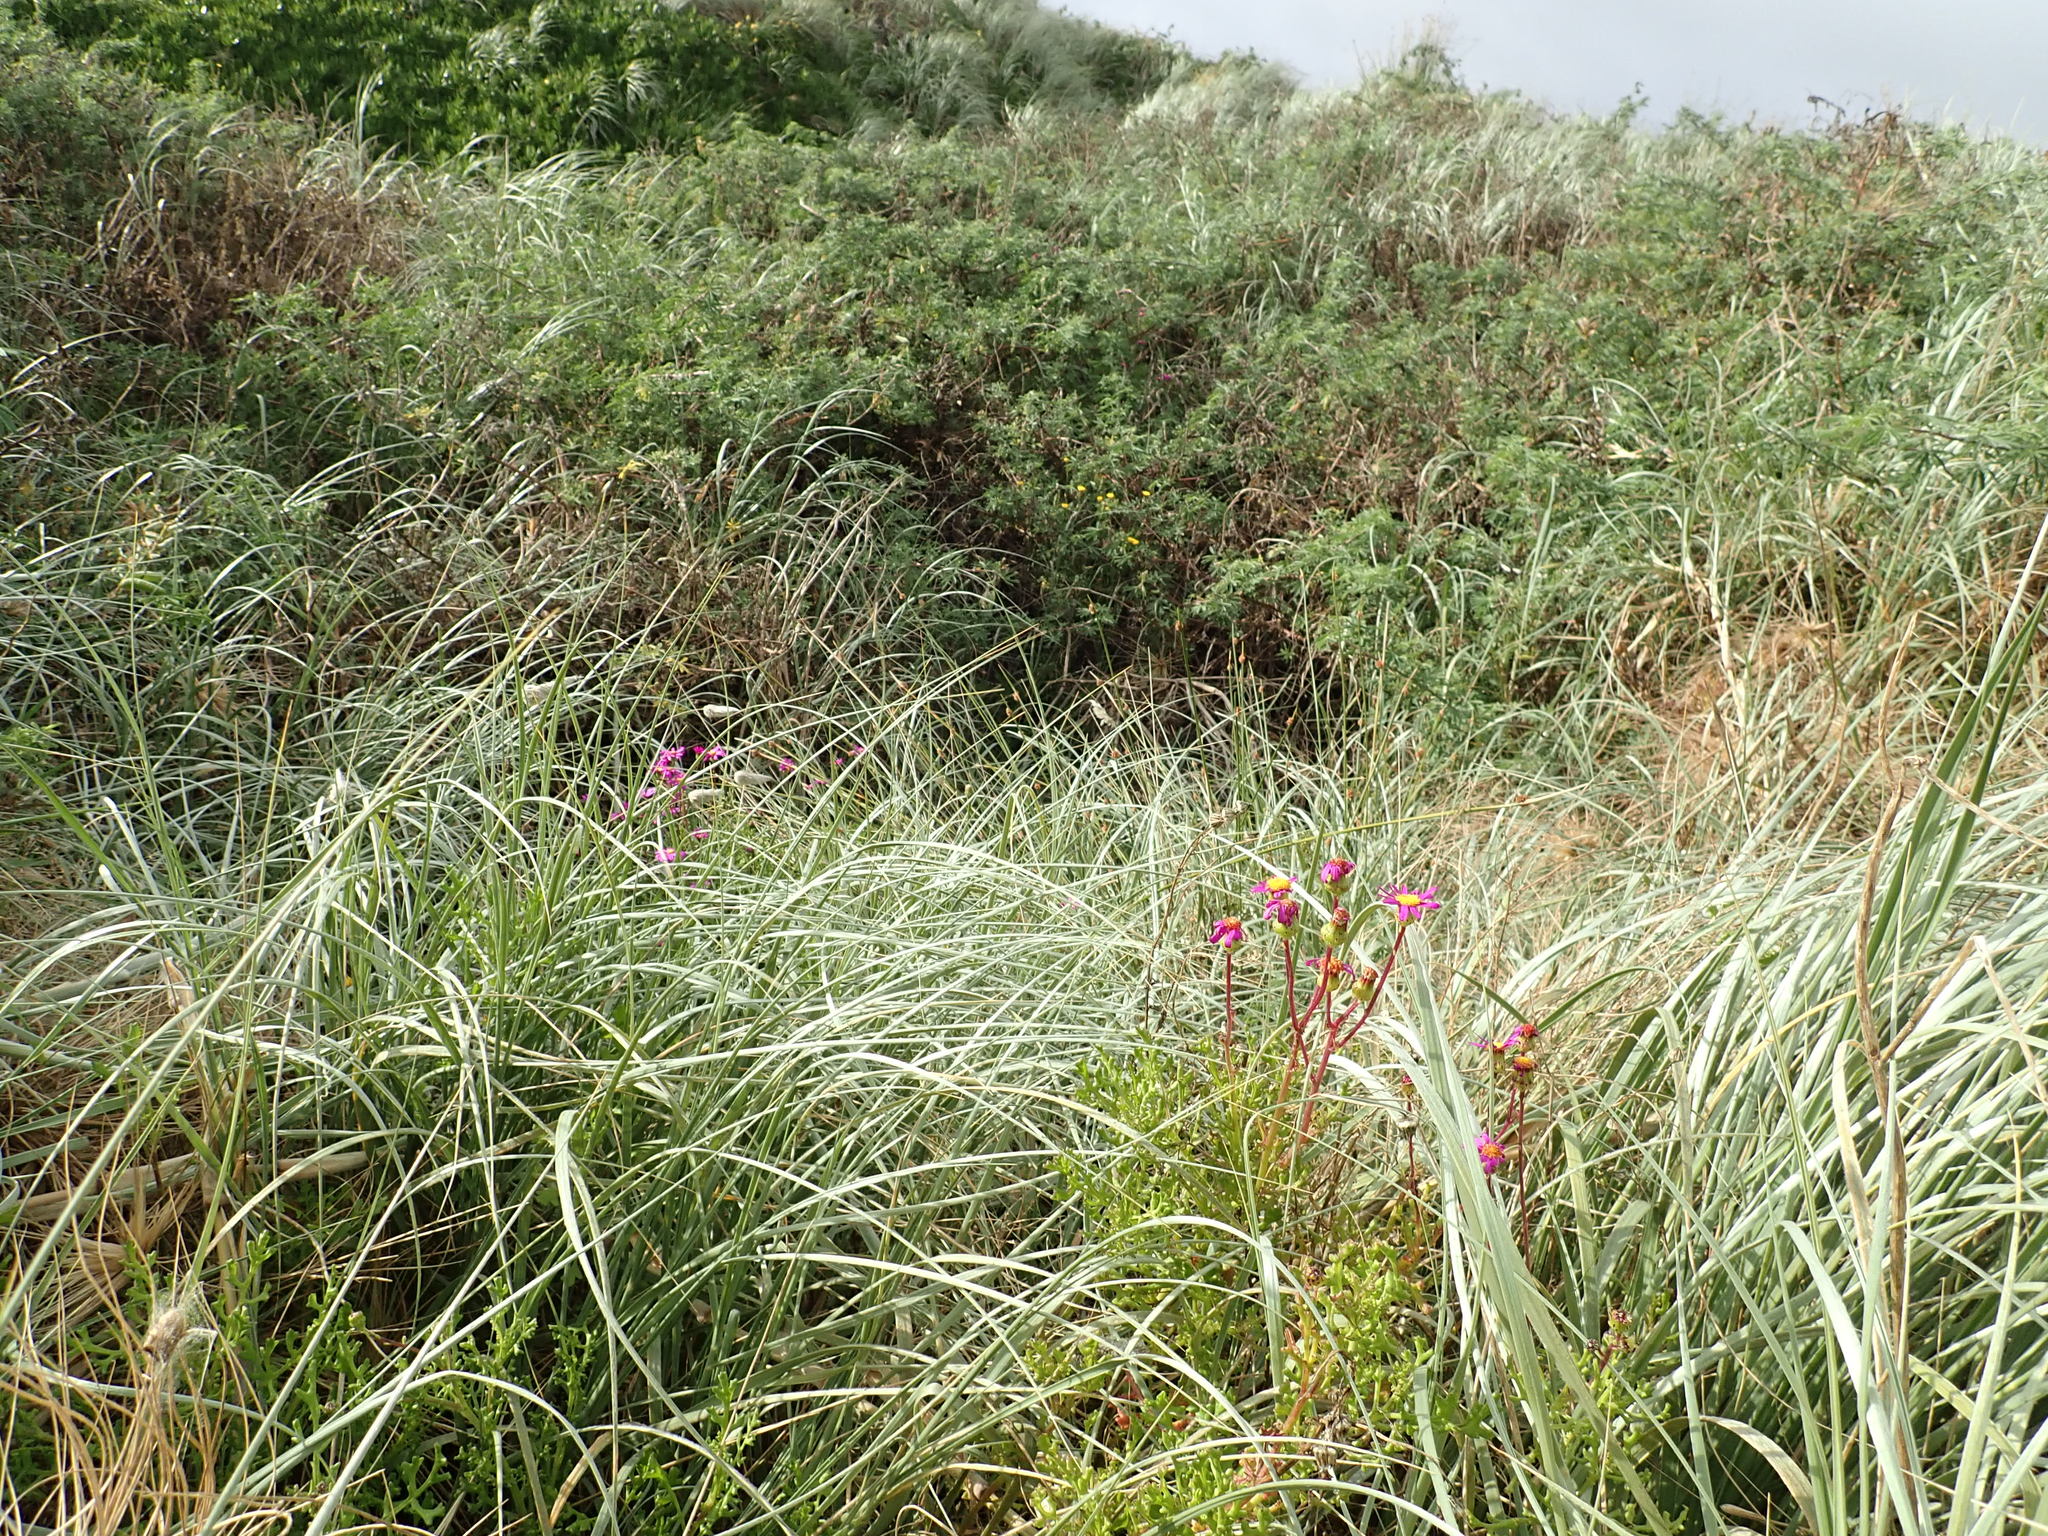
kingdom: Plantae
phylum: Tracheophyta
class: Magnoliopsida
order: Asterales
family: Asteraceae
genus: Senecio
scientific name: Senecio elegans
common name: Purple groundsel
